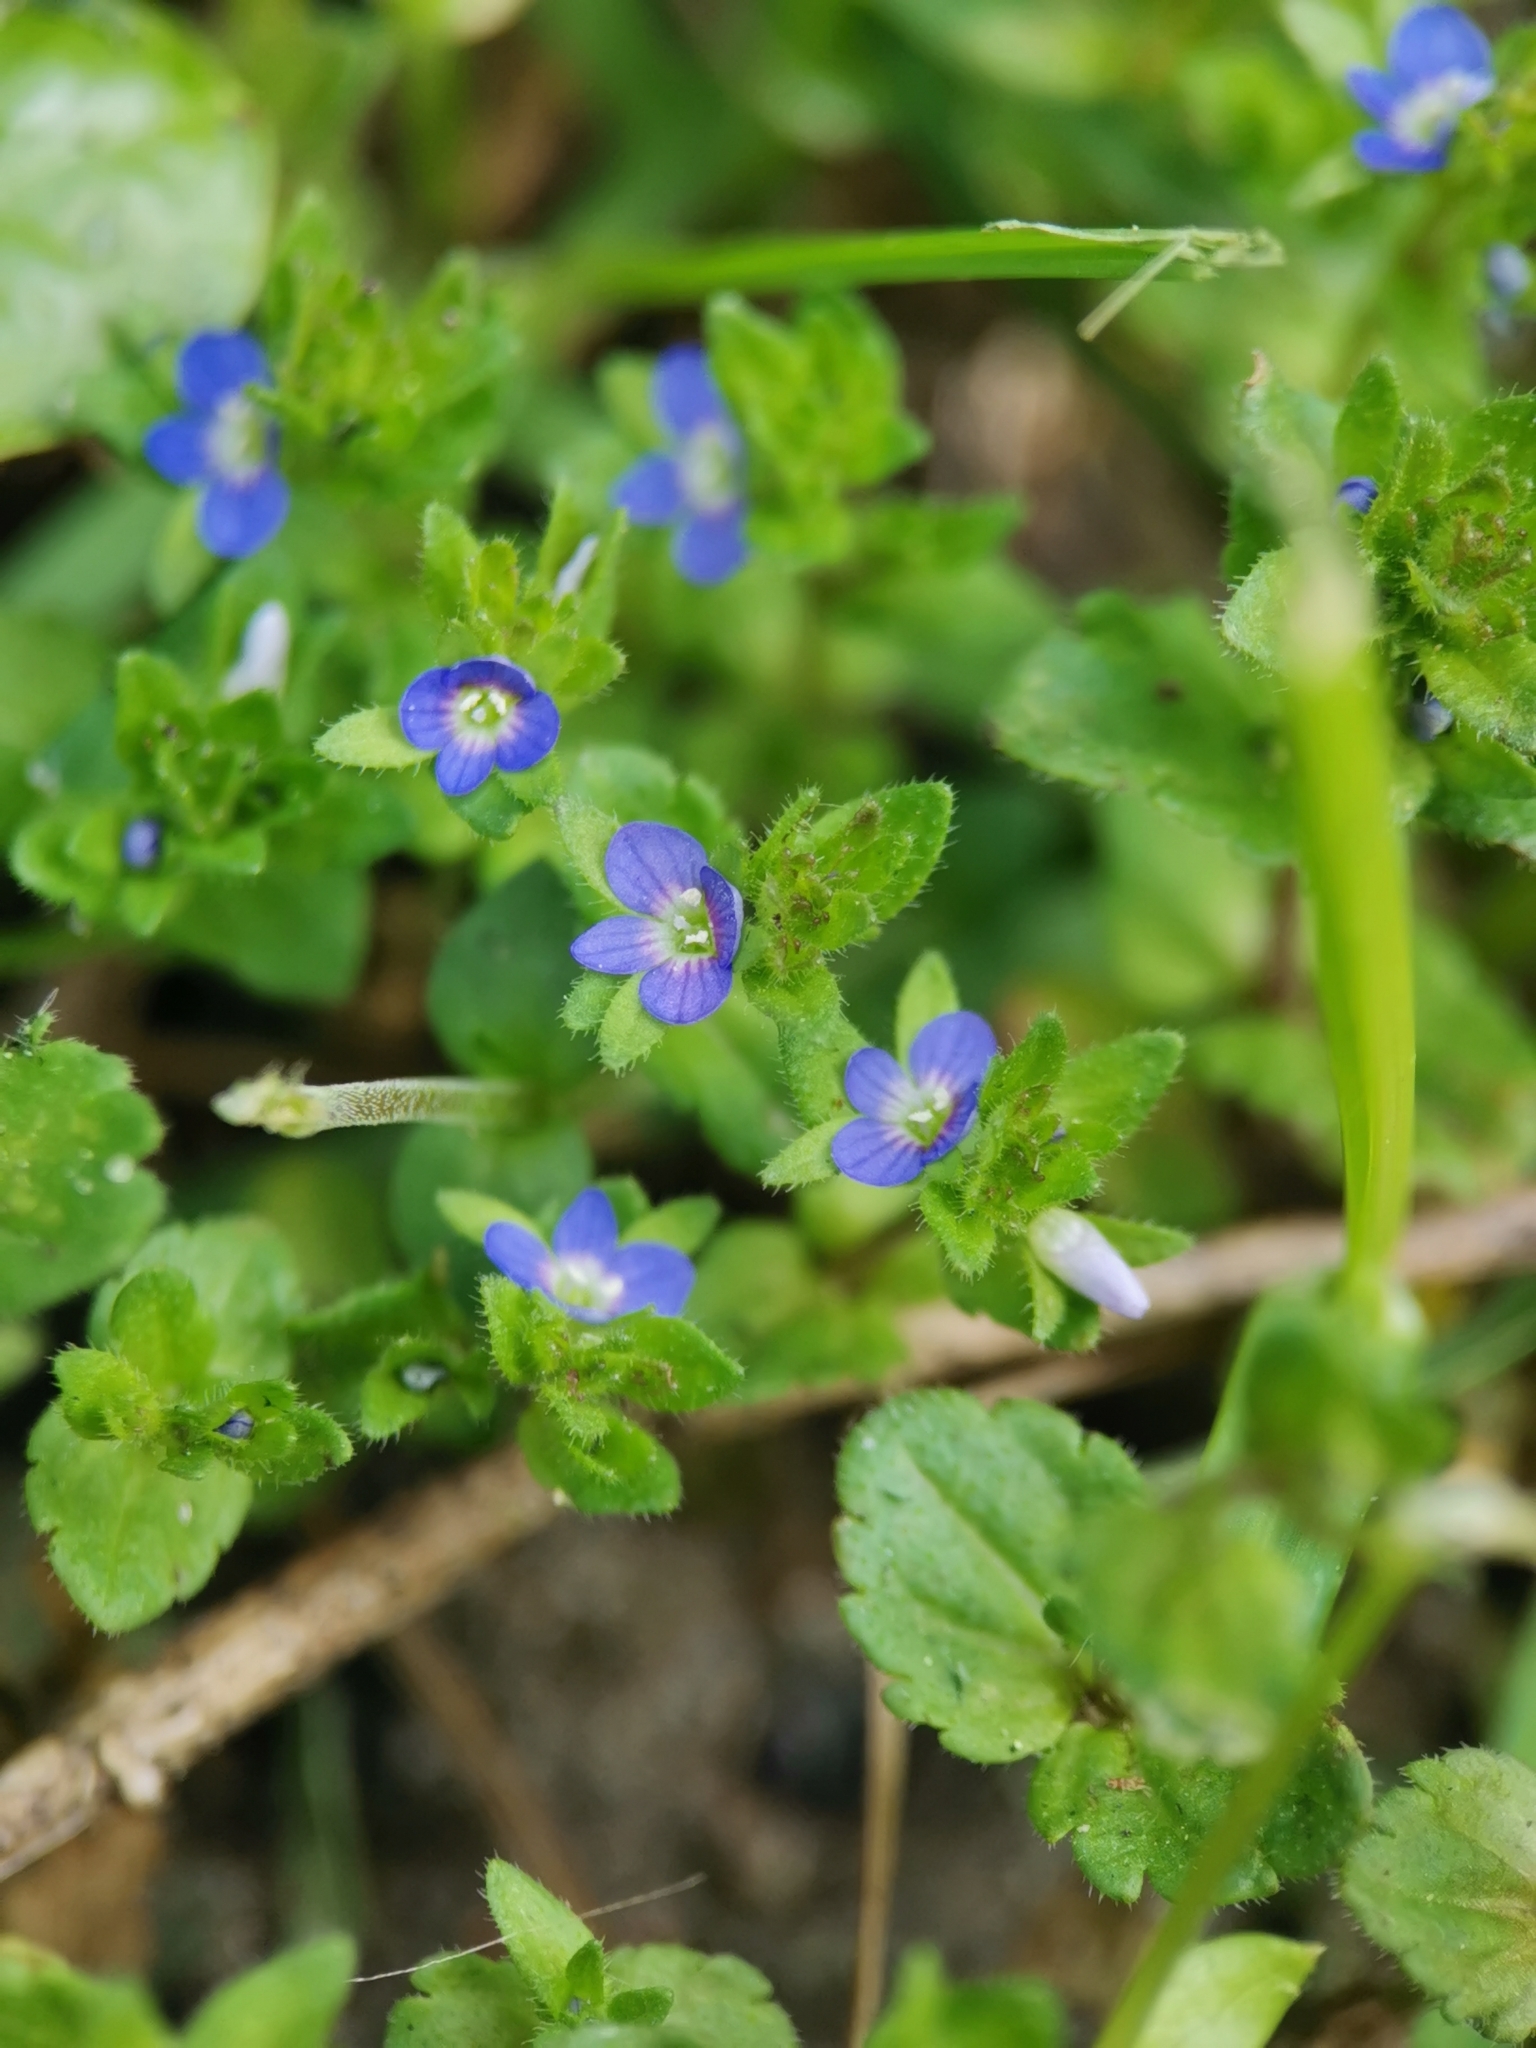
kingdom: Plantae
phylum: Tracheophyta
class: Magnoliopsida
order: Lamiales
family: Plantaginaceae
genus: Veronica
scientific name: Veronica arvensis
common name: Corn speedwell
